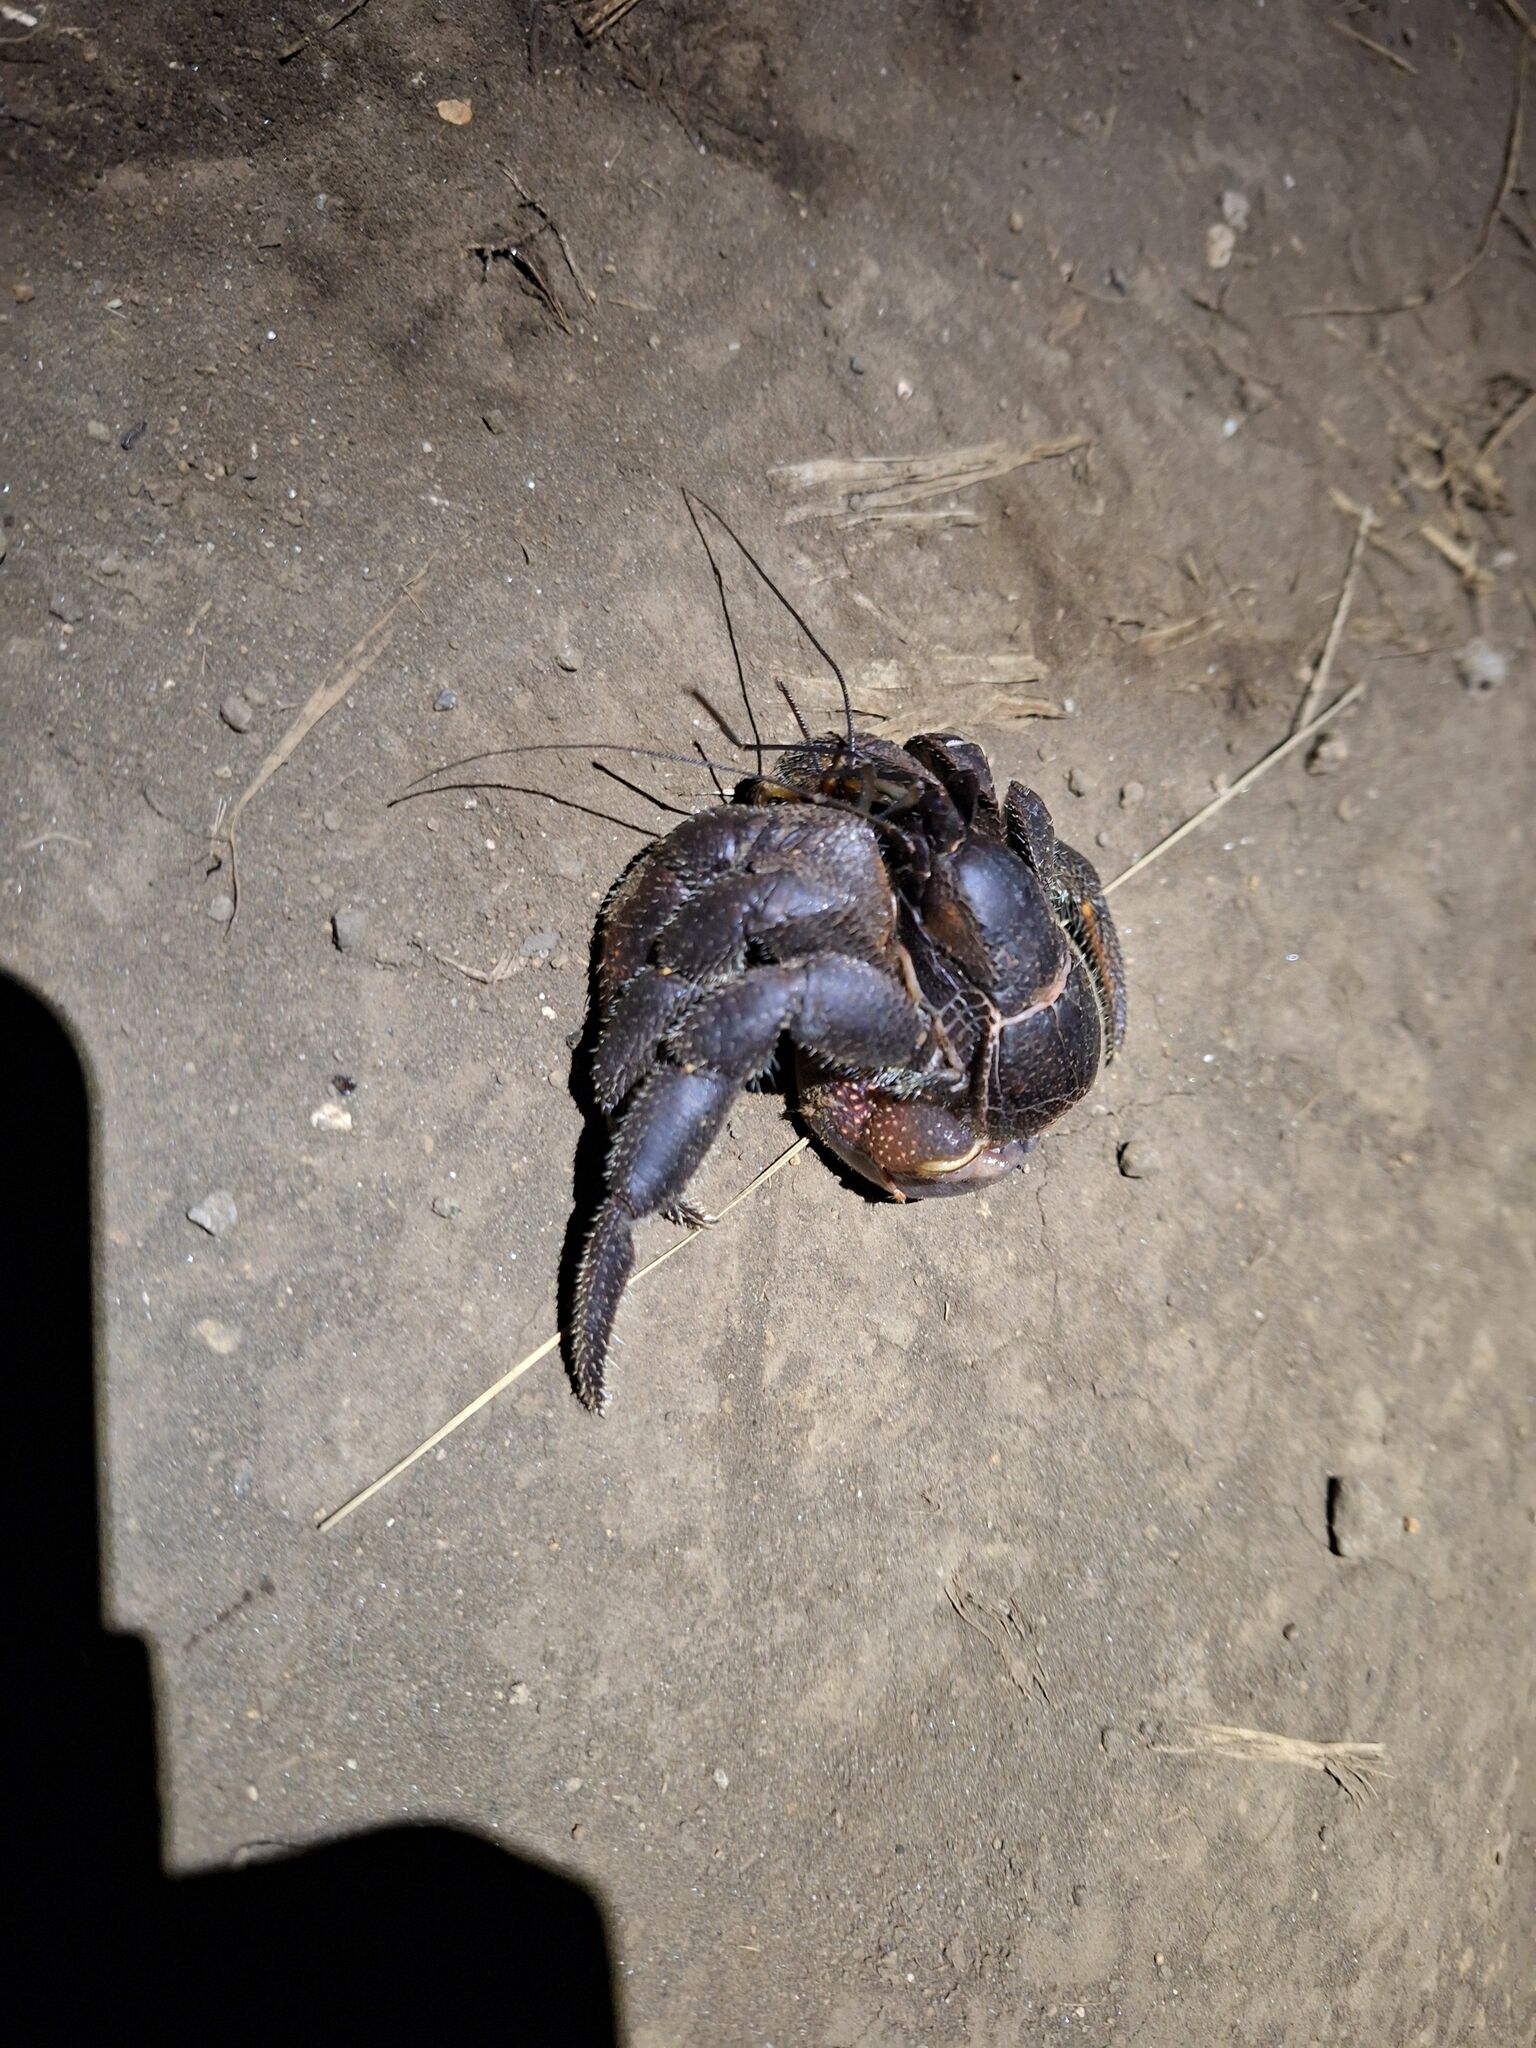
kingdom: Animalia
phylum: Arthropoda
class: Malacostraca
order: Decapoda
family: Coenobitidae
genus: Coenobita
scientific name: Coenobita spinosus
